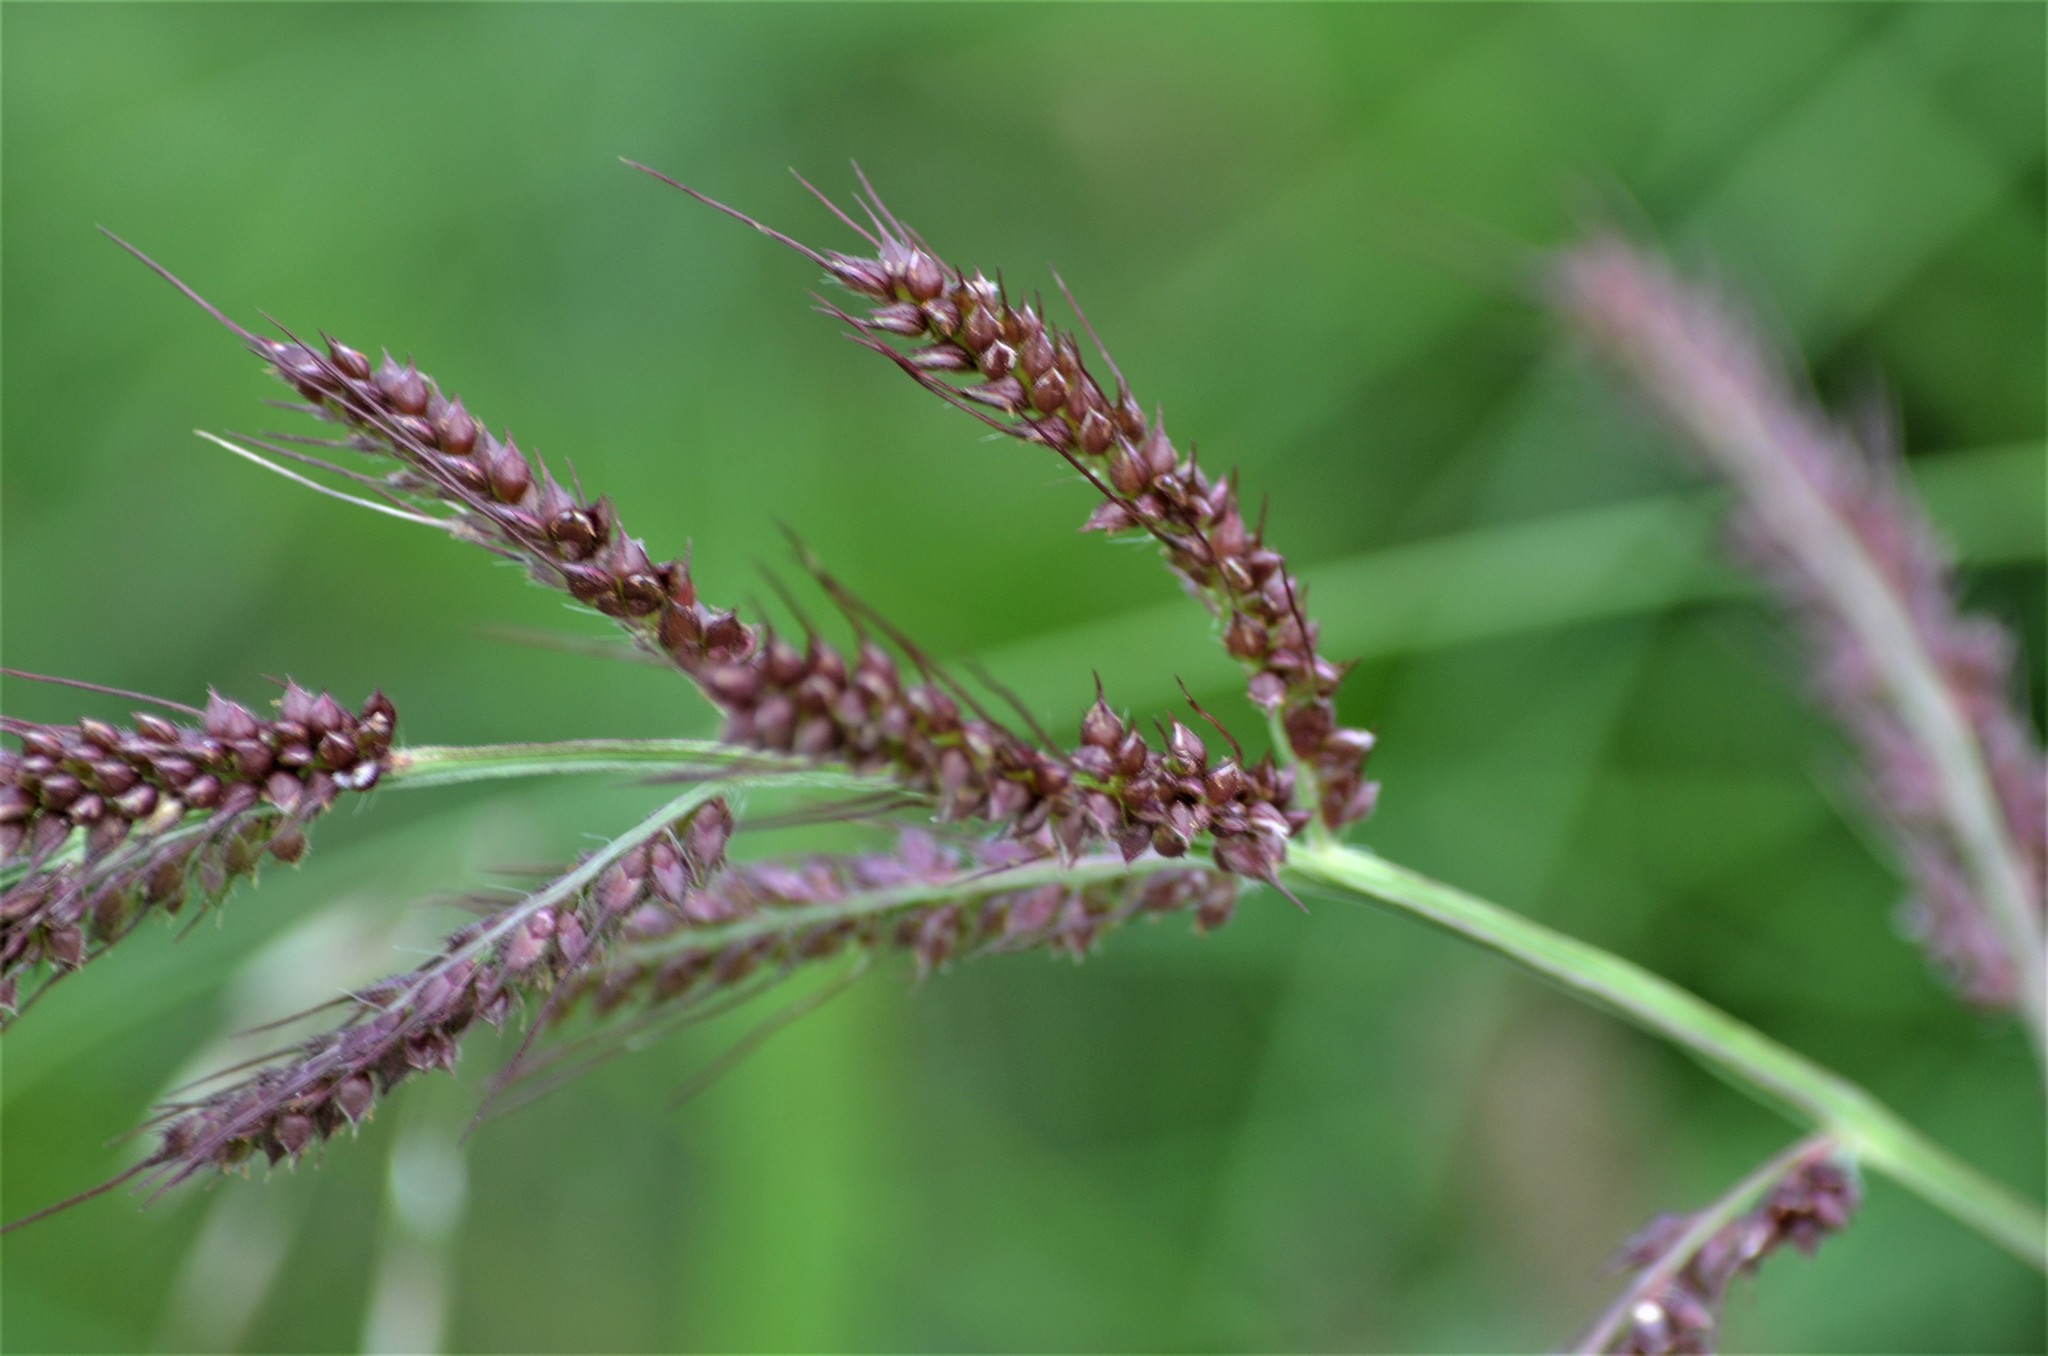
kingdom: Plantae
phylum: Tracheophyta
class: Liliopsida
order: Poales
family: Poaceae
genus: Echinochloa
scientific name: Echinochloa crus-galli
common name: Cockspur
